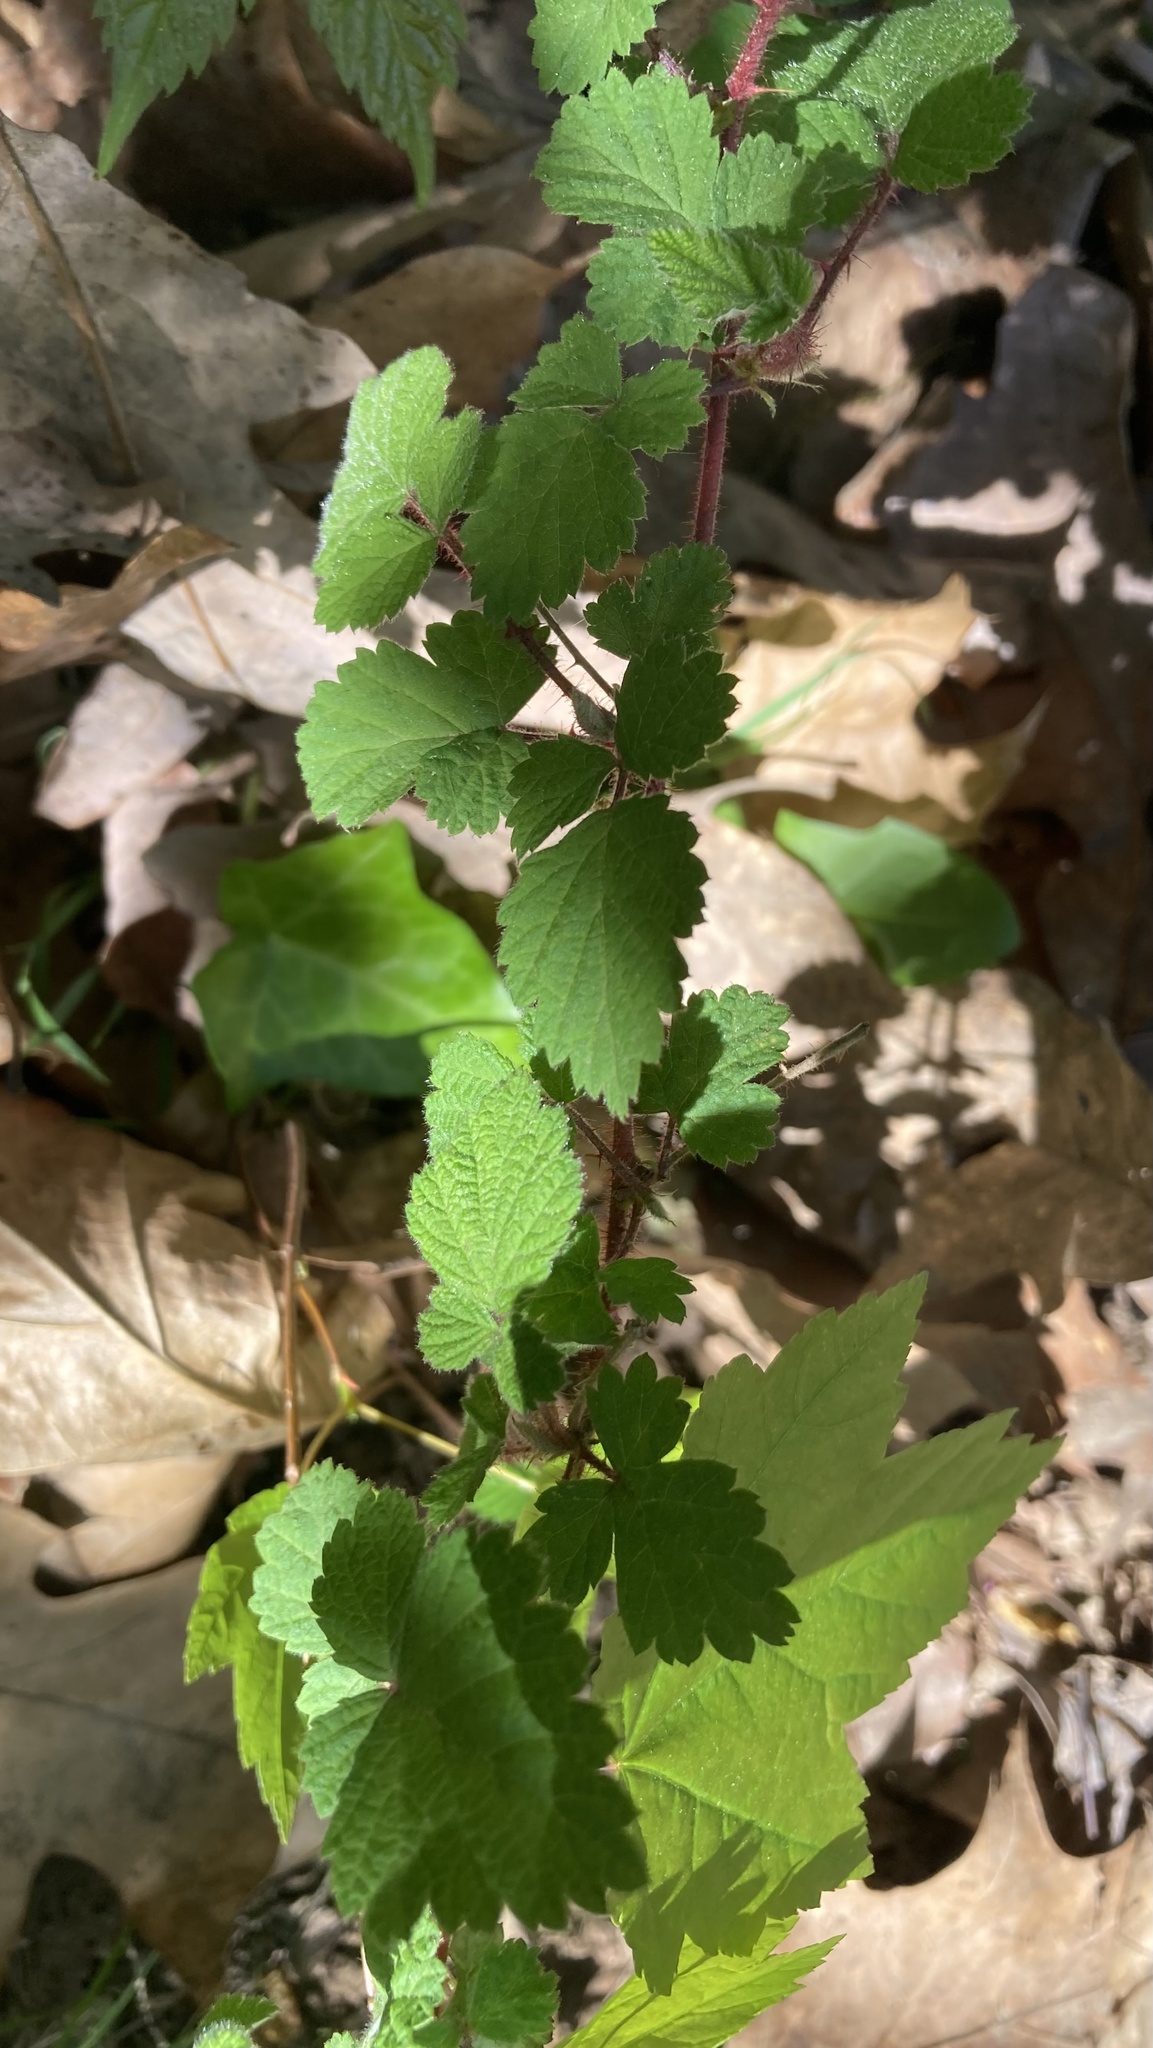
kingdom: Plantae
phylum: Tracheophyta
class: Magnoliopsida
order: Rosales
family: Rosaceae
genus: Rubus
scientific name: Rubus phoenicolasius
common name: Japanese wineberry
